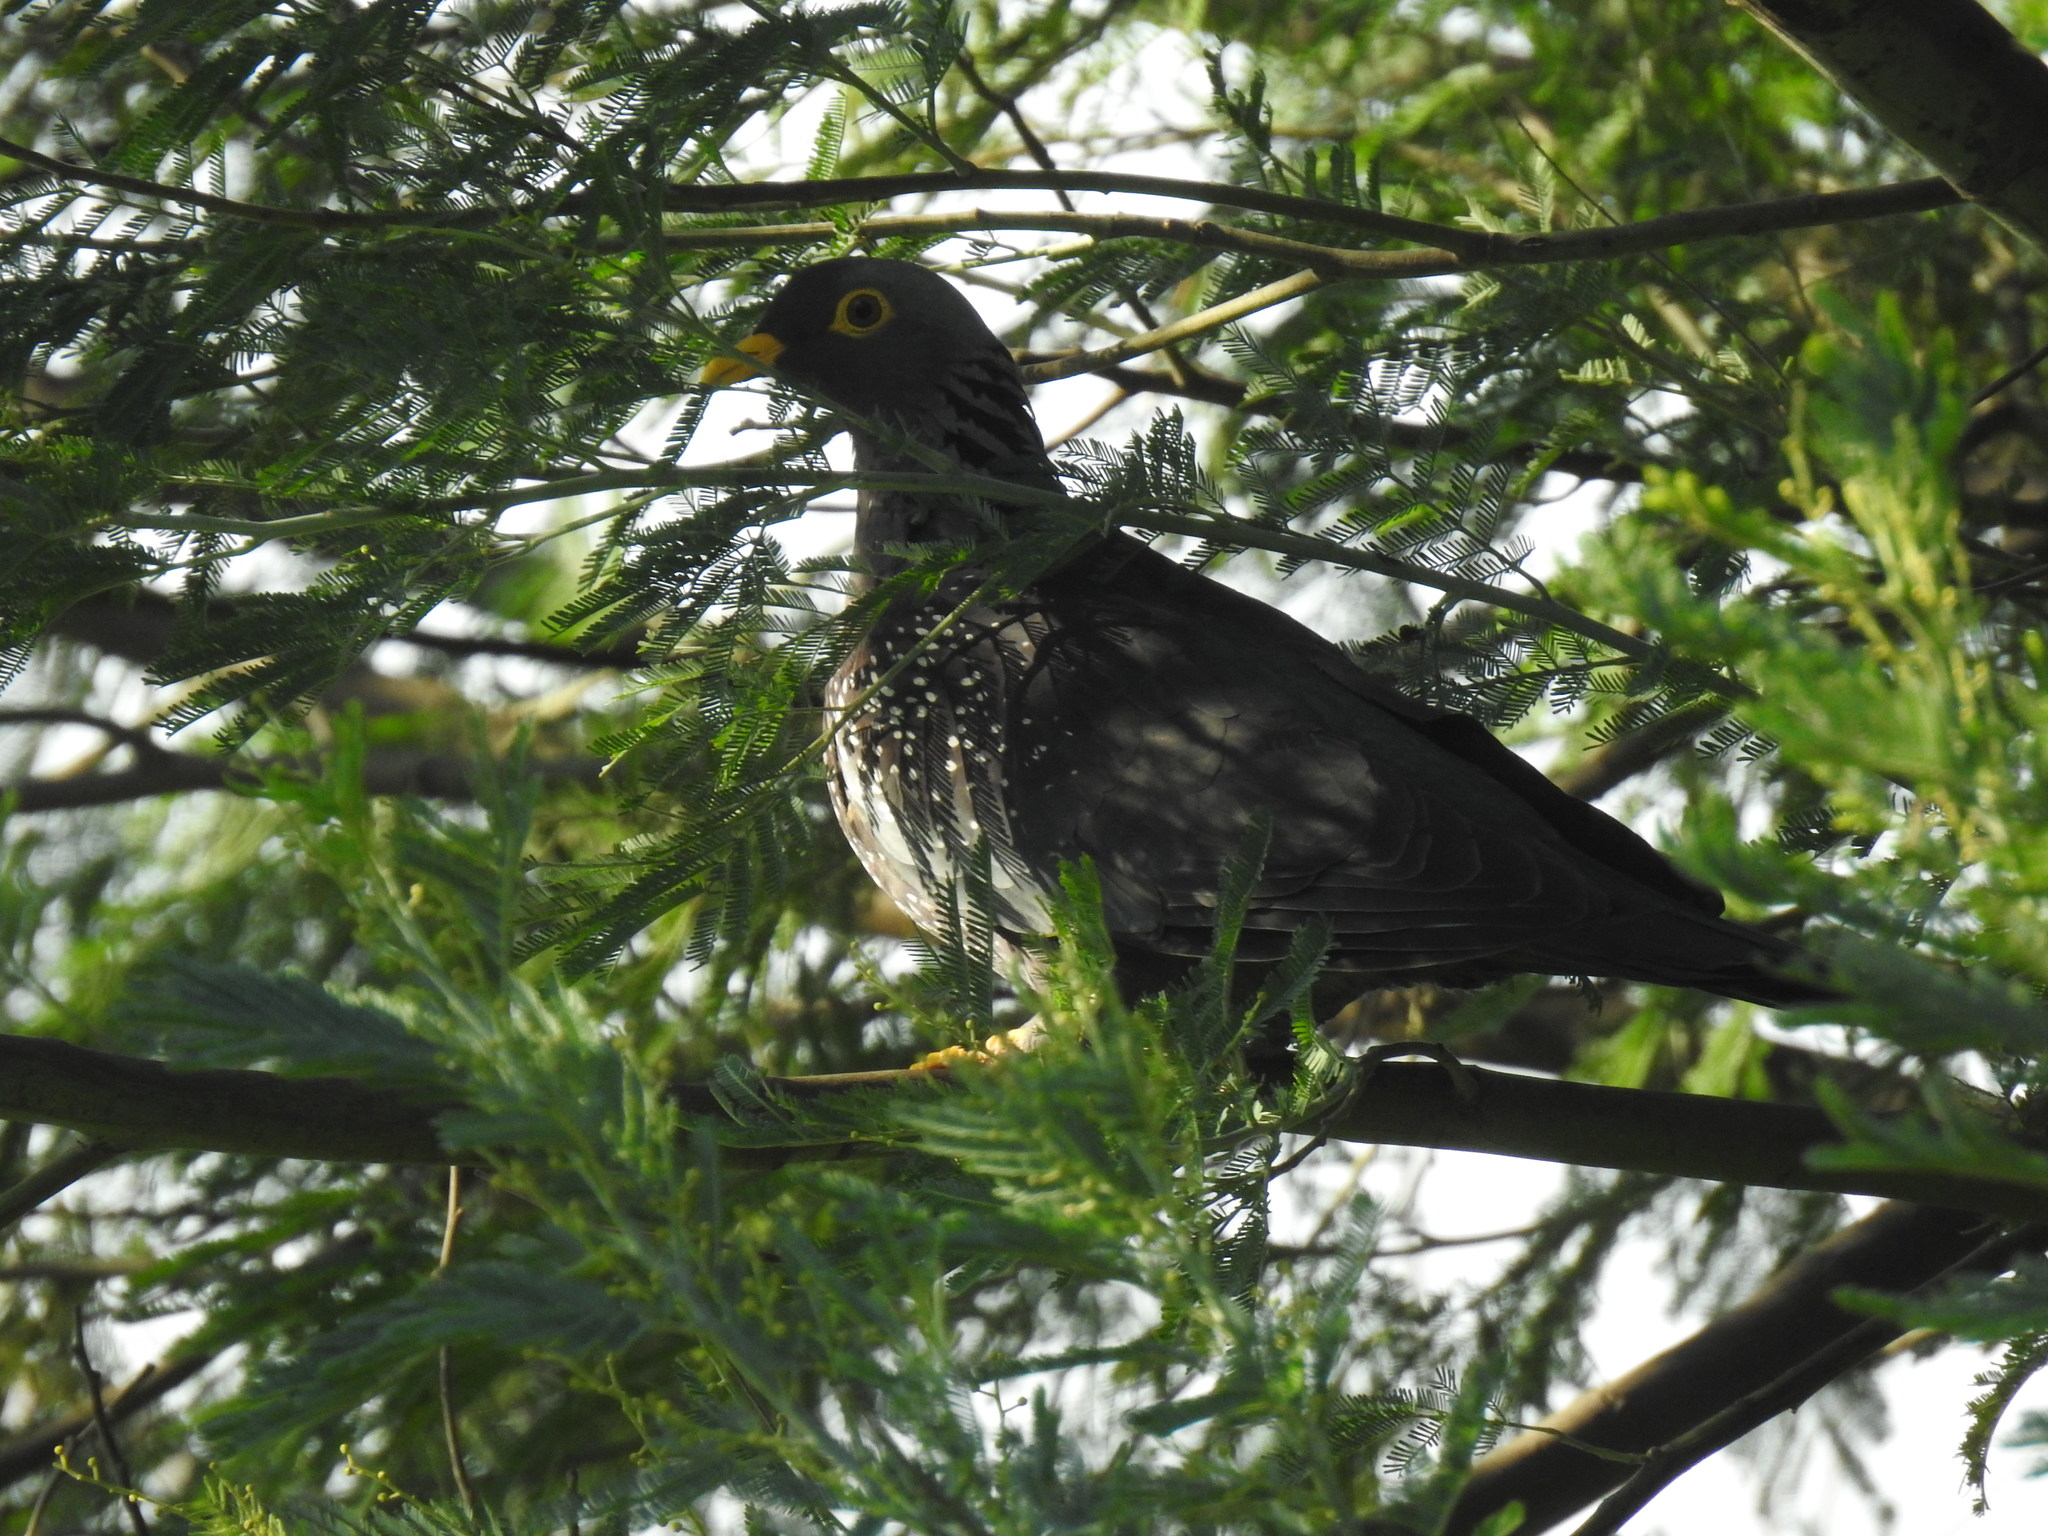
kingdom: Animalia
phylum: Chordata
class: Aves
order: Columbiformes
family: Columbidae
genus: Columba
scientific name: Columba arquatrix
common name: African olive pigeon
